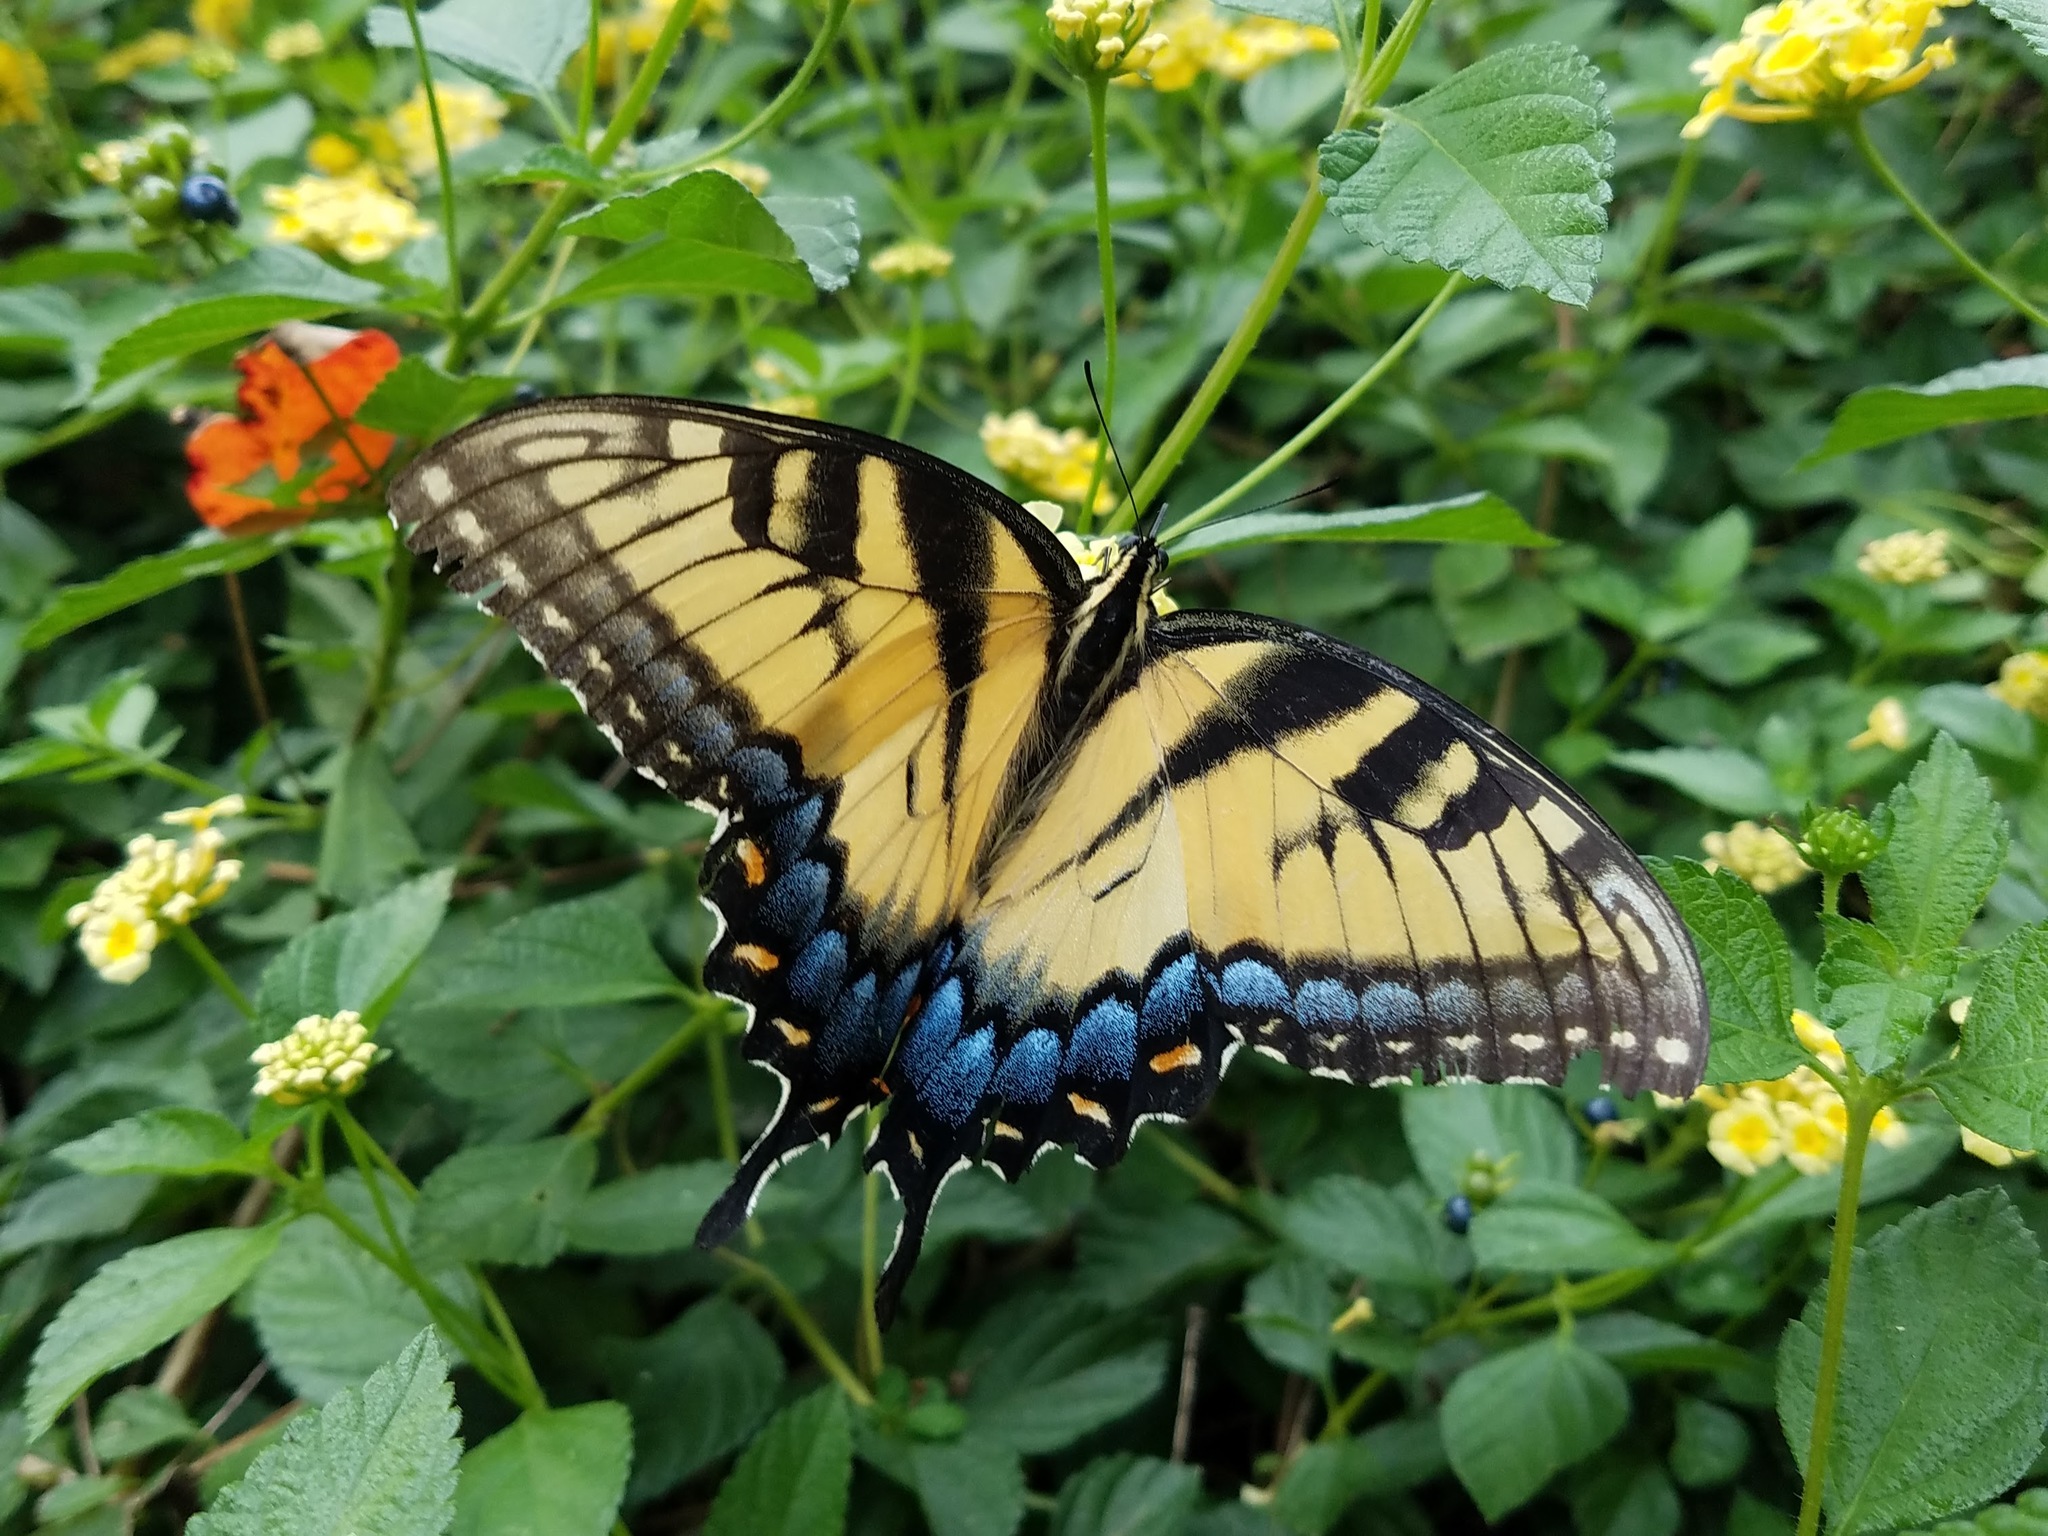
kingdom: Animalia
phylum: Arthropoda
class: Insecta
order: Lepidoptera
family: Papilionidae
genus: Papilio
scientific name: Papilio glaucus
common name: Tiger swallowtail
